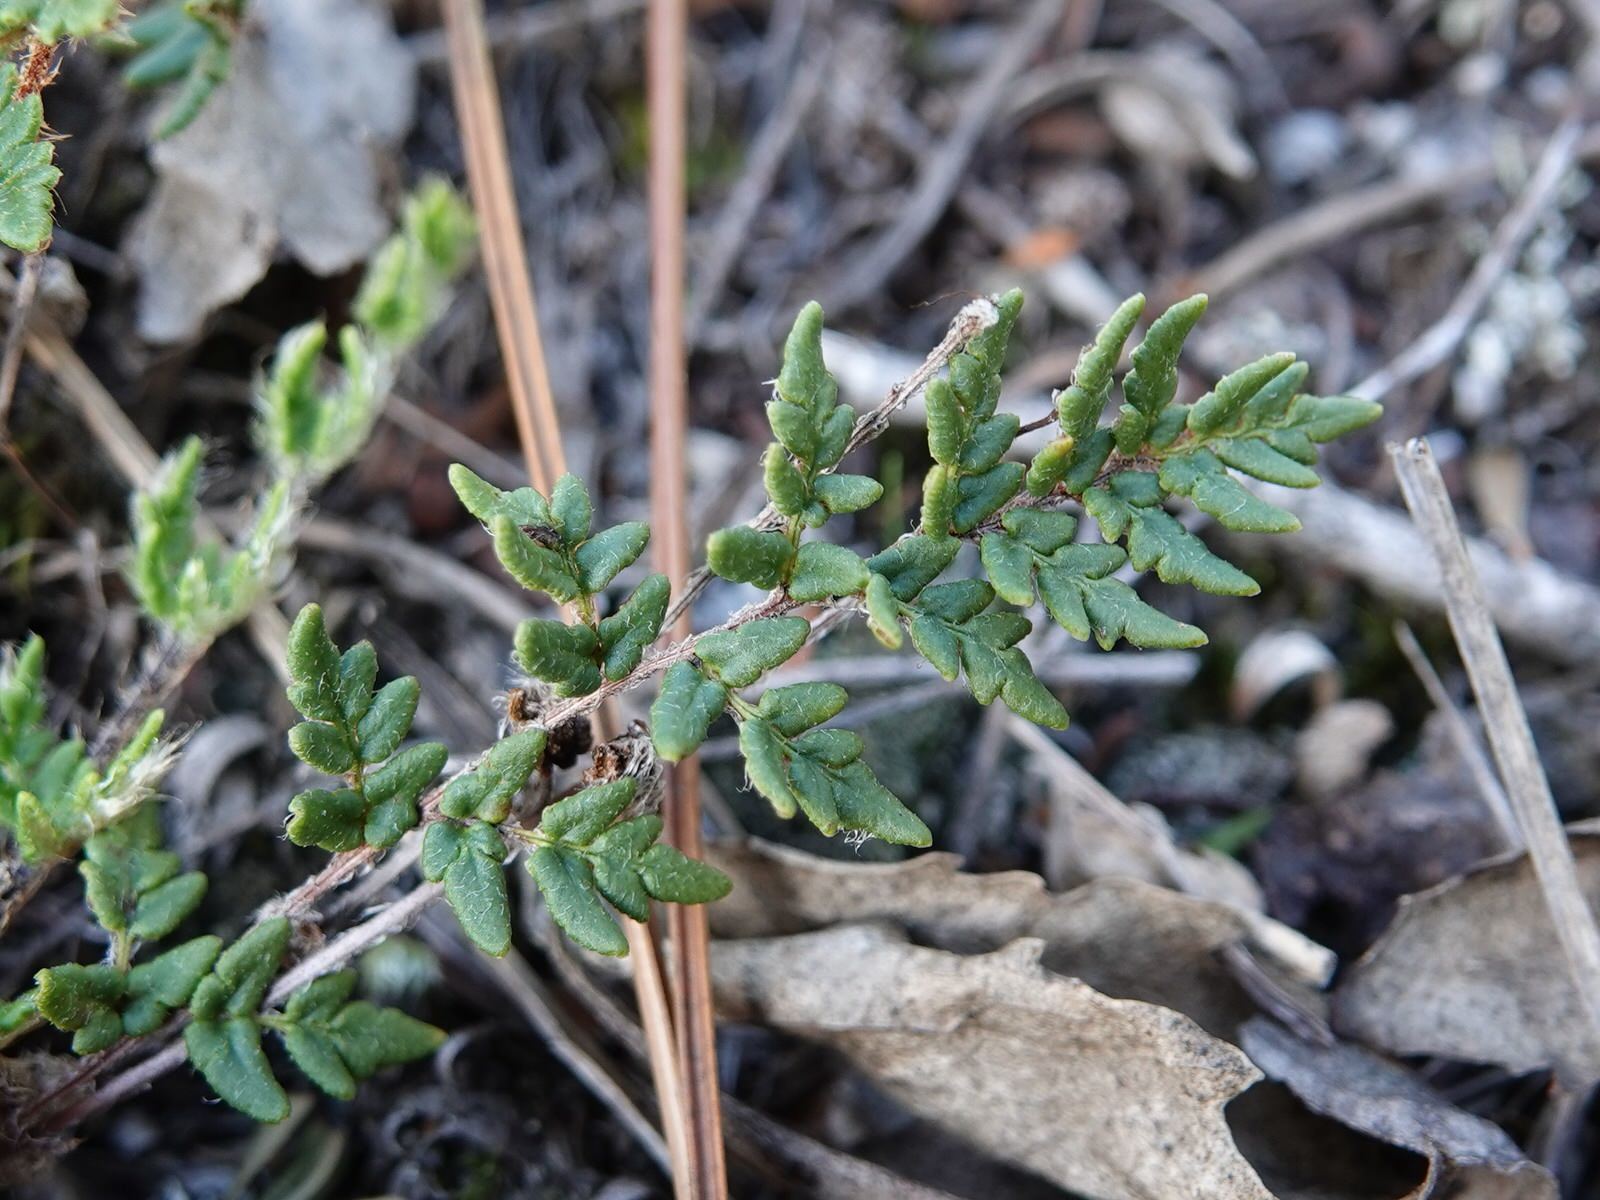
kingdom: Plantae
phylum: Tracheophyta
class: Polypodiopsida
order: Polypodiales
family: Pteridaceae
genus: Cheilanthes
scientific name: Cheilanthes distans
